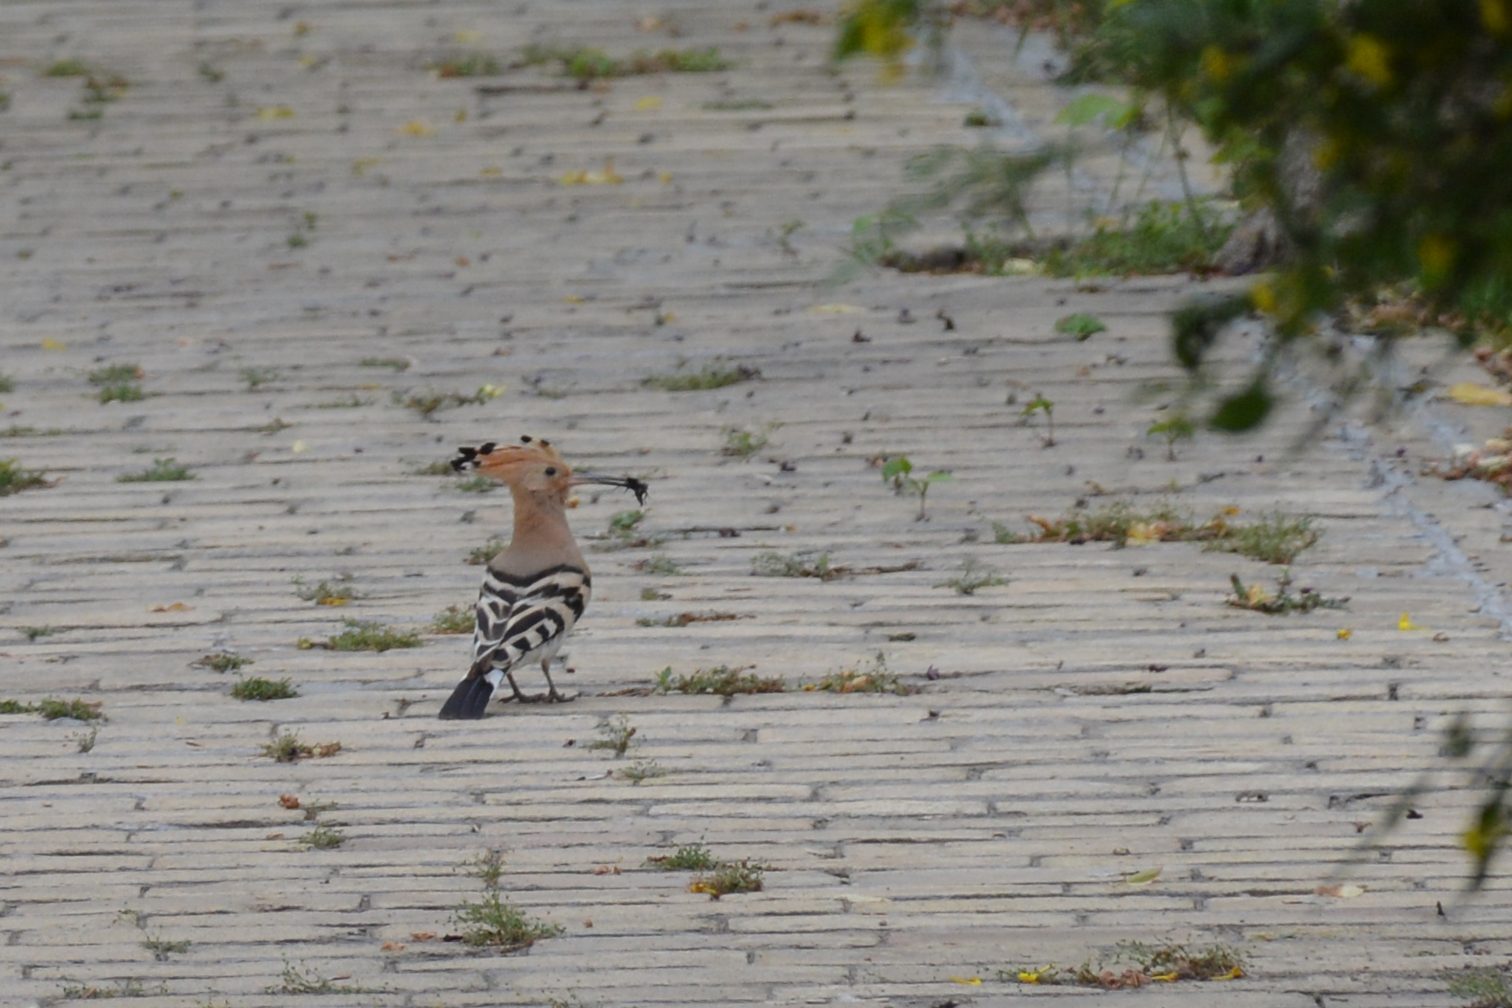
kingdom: Animalia
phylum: Chordata
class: Aves
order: Bucerotiformes
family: Upupidae
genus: Upupa
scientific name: Upupa epops
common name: Eurasian hoopoe
